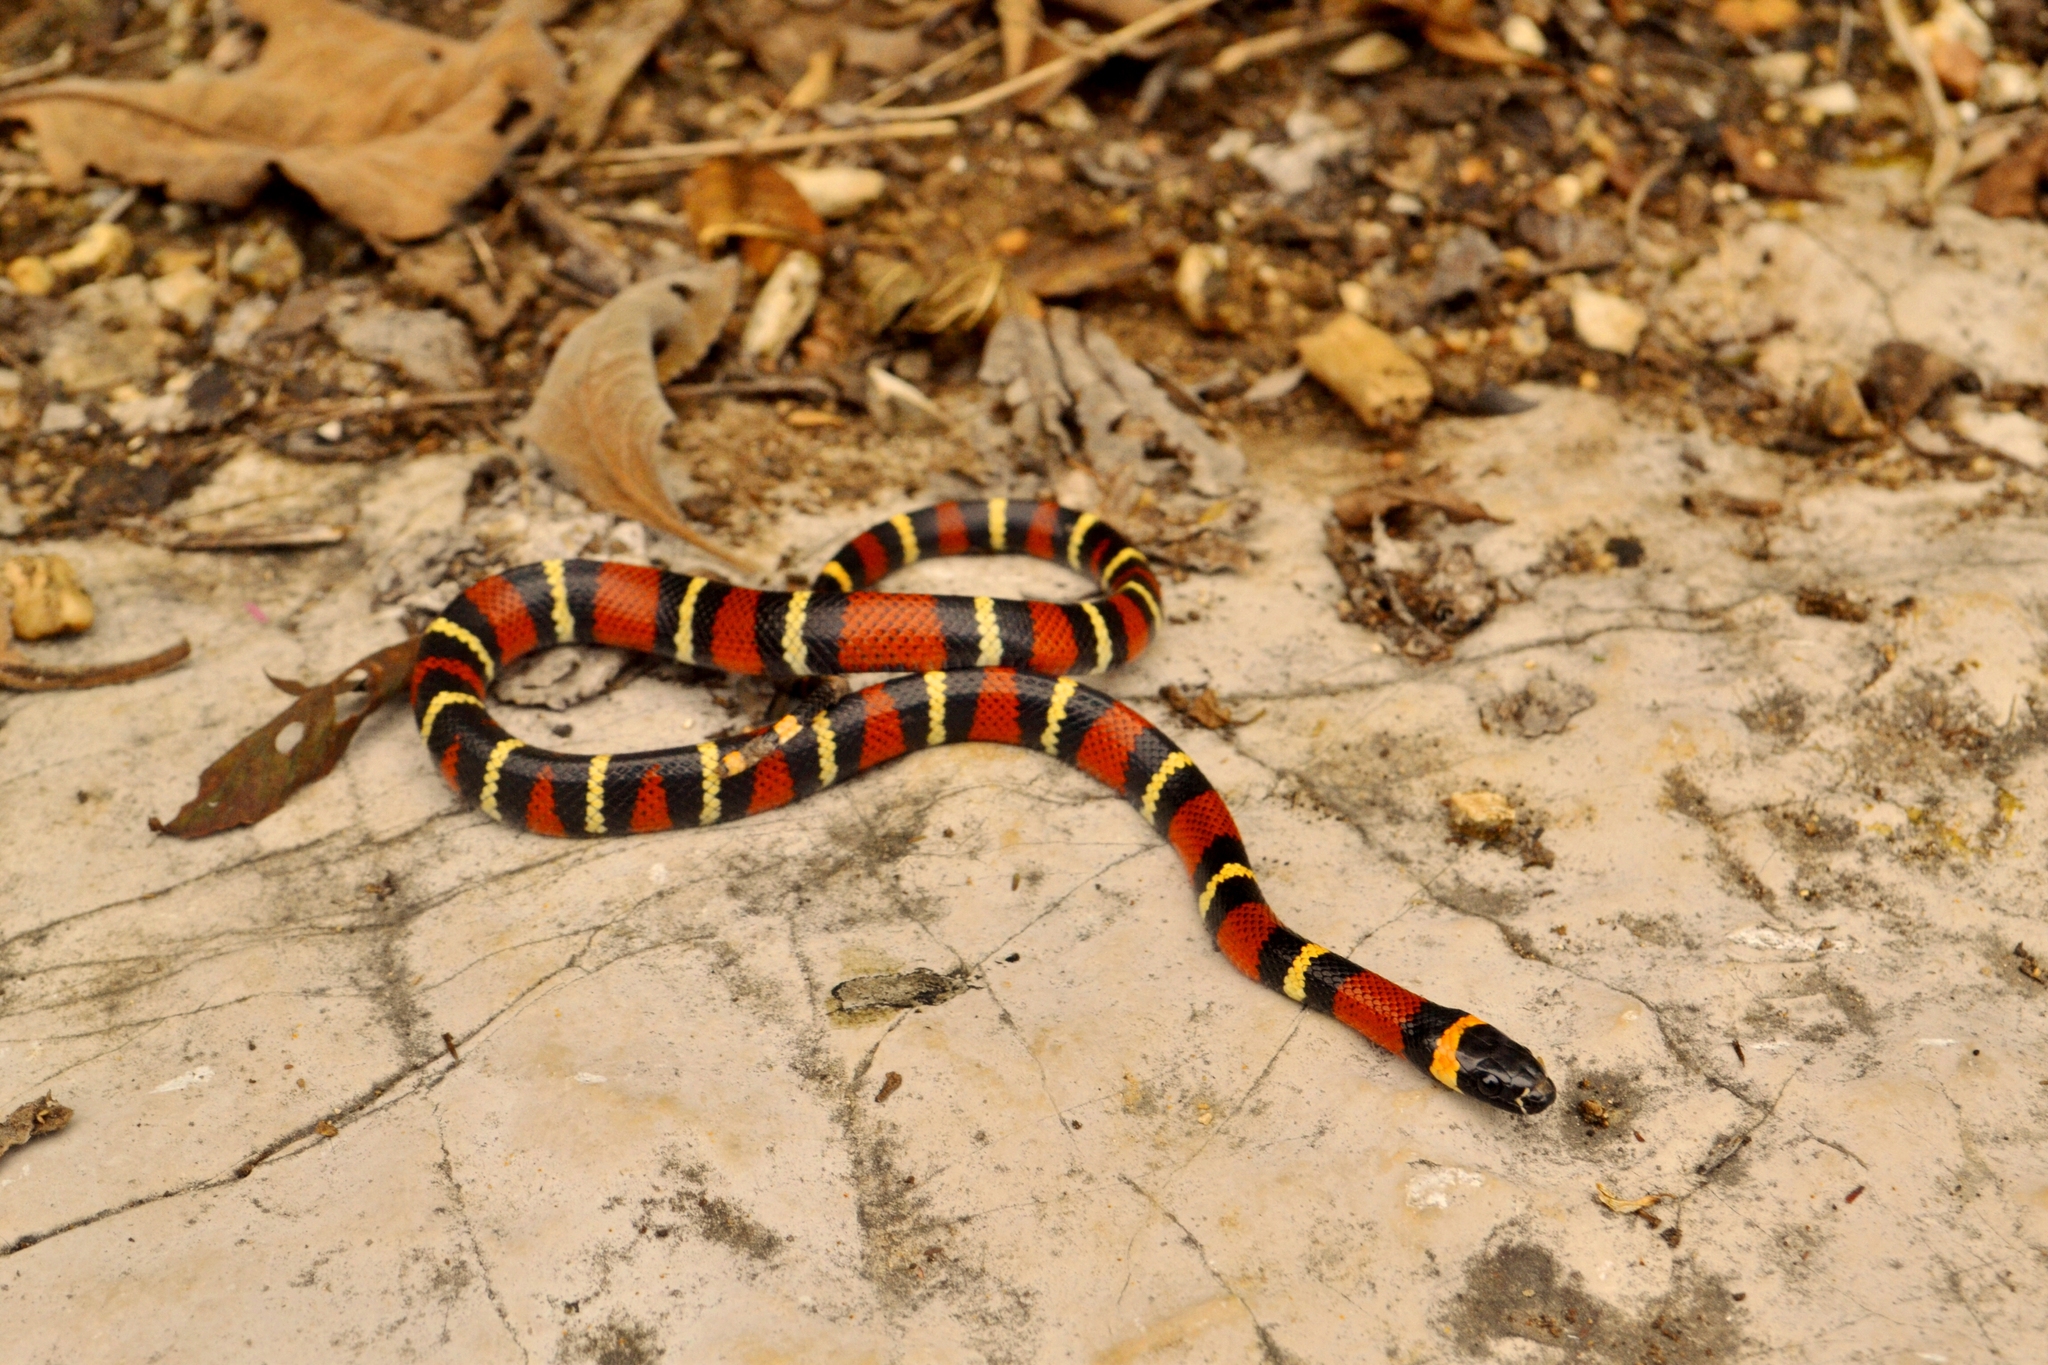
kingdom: Animalia
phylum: Chordata
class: Squamata
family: Colubridae
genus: Lampropeltis
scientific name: Lampropeltis abnorma
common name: Honduran milk snake
